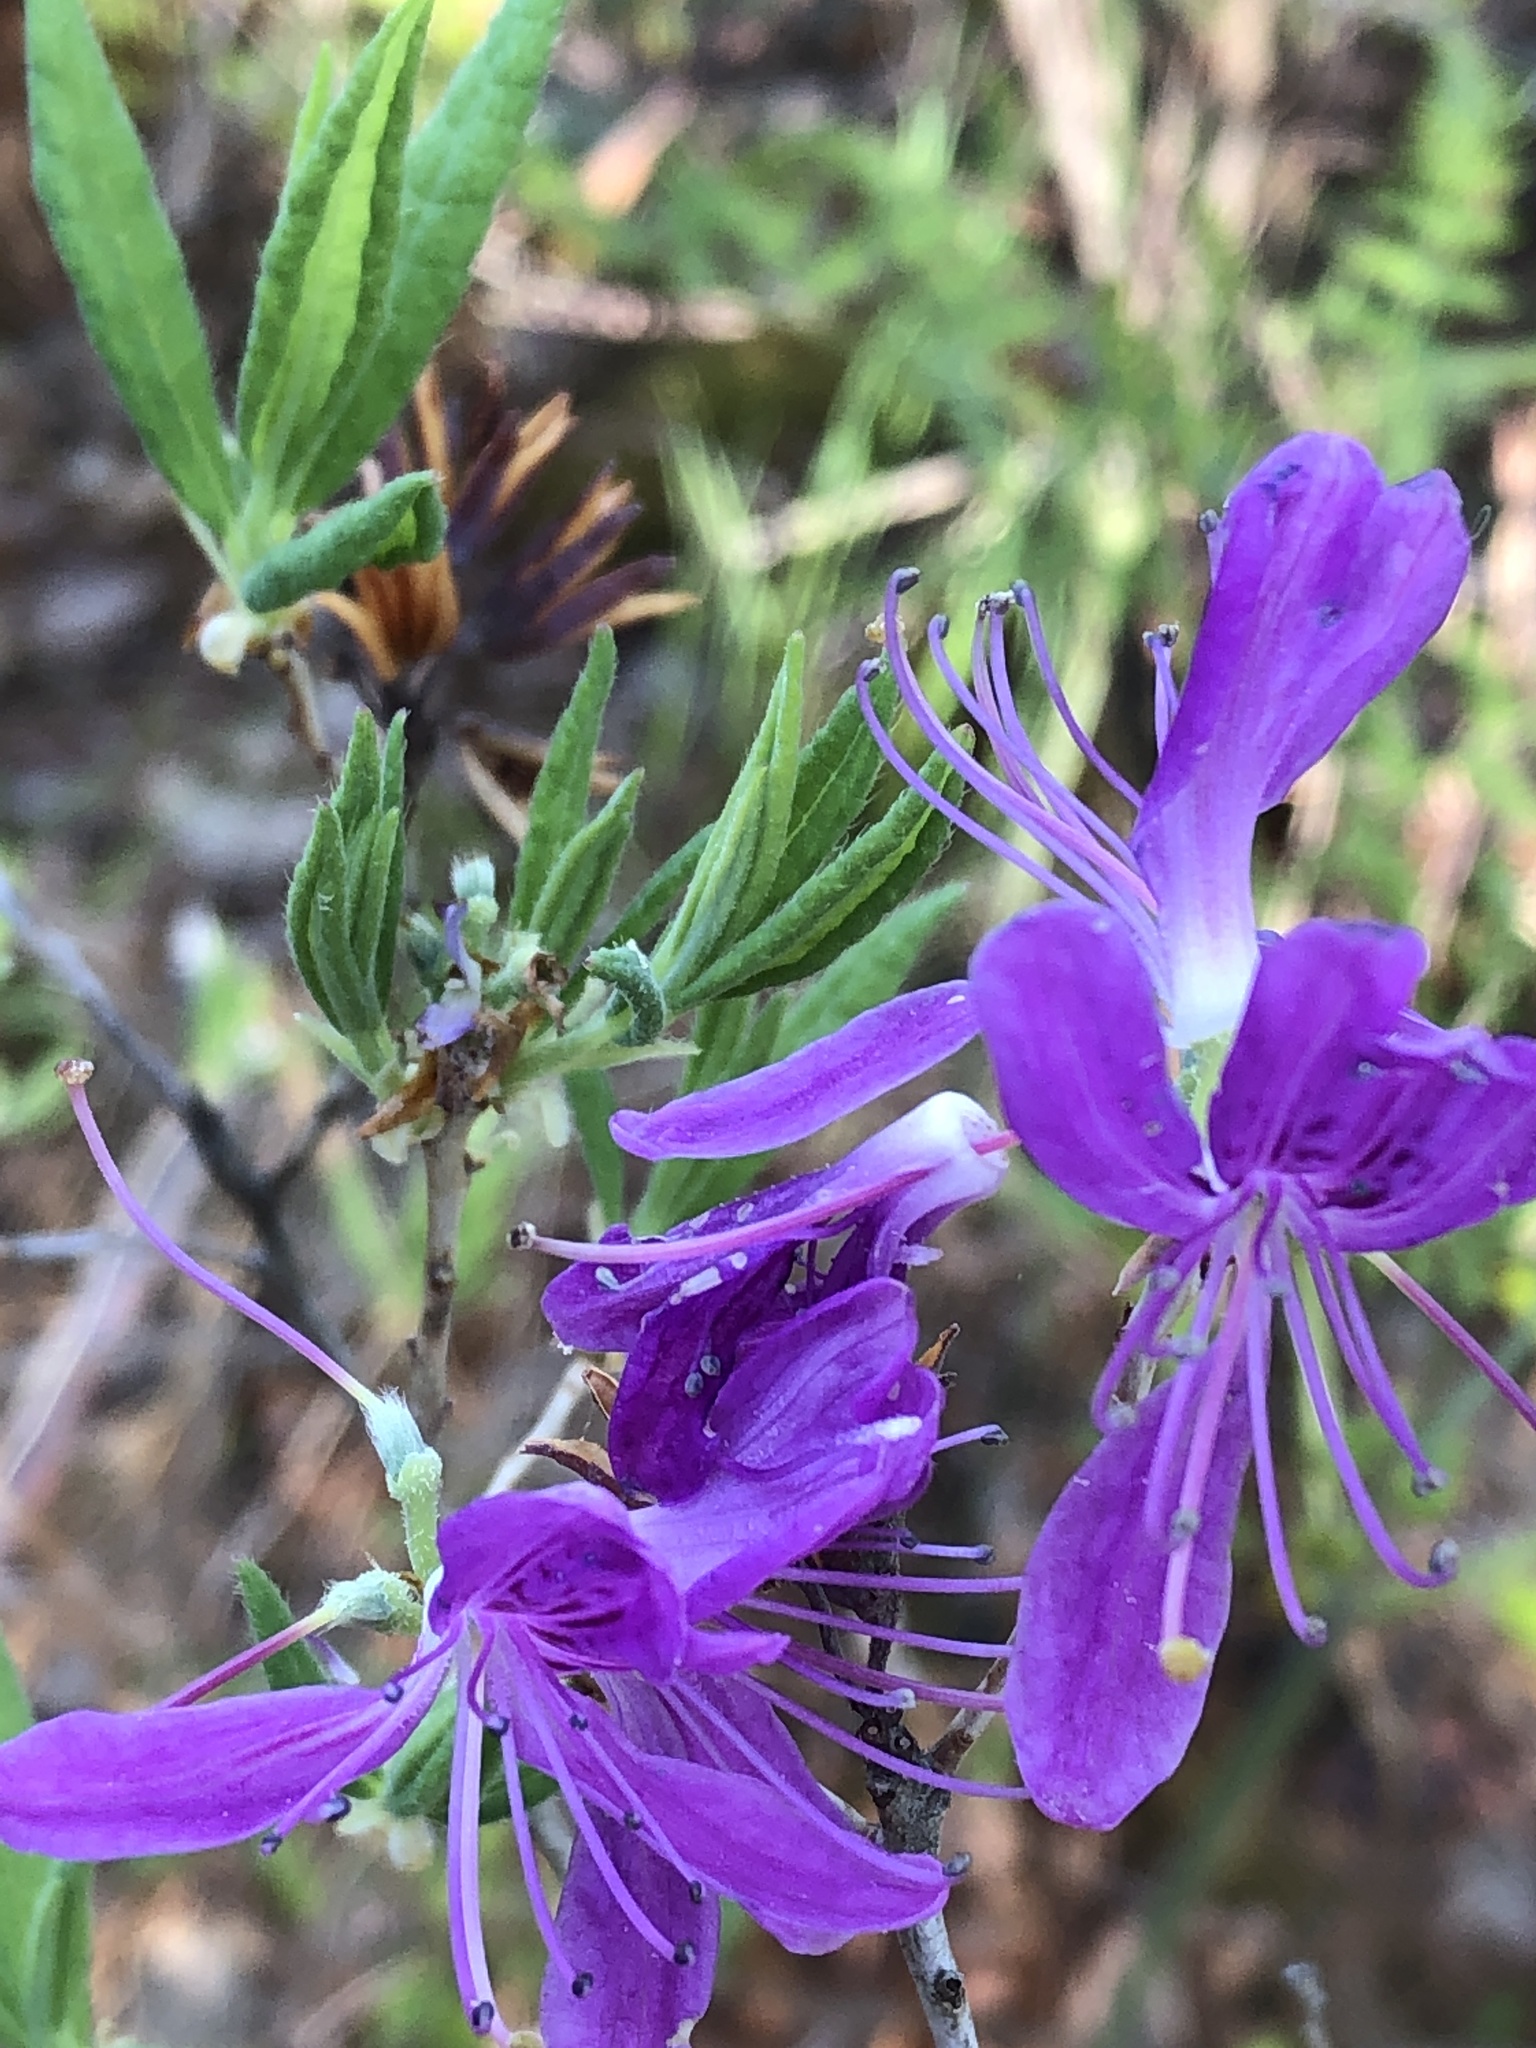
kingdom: Plantae
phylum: Tracheophyta
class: Magnoliopsida
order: Ericales
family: Ericaceae
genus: Rhododendron
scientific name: Rhododendron canadense
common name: Rhodora
